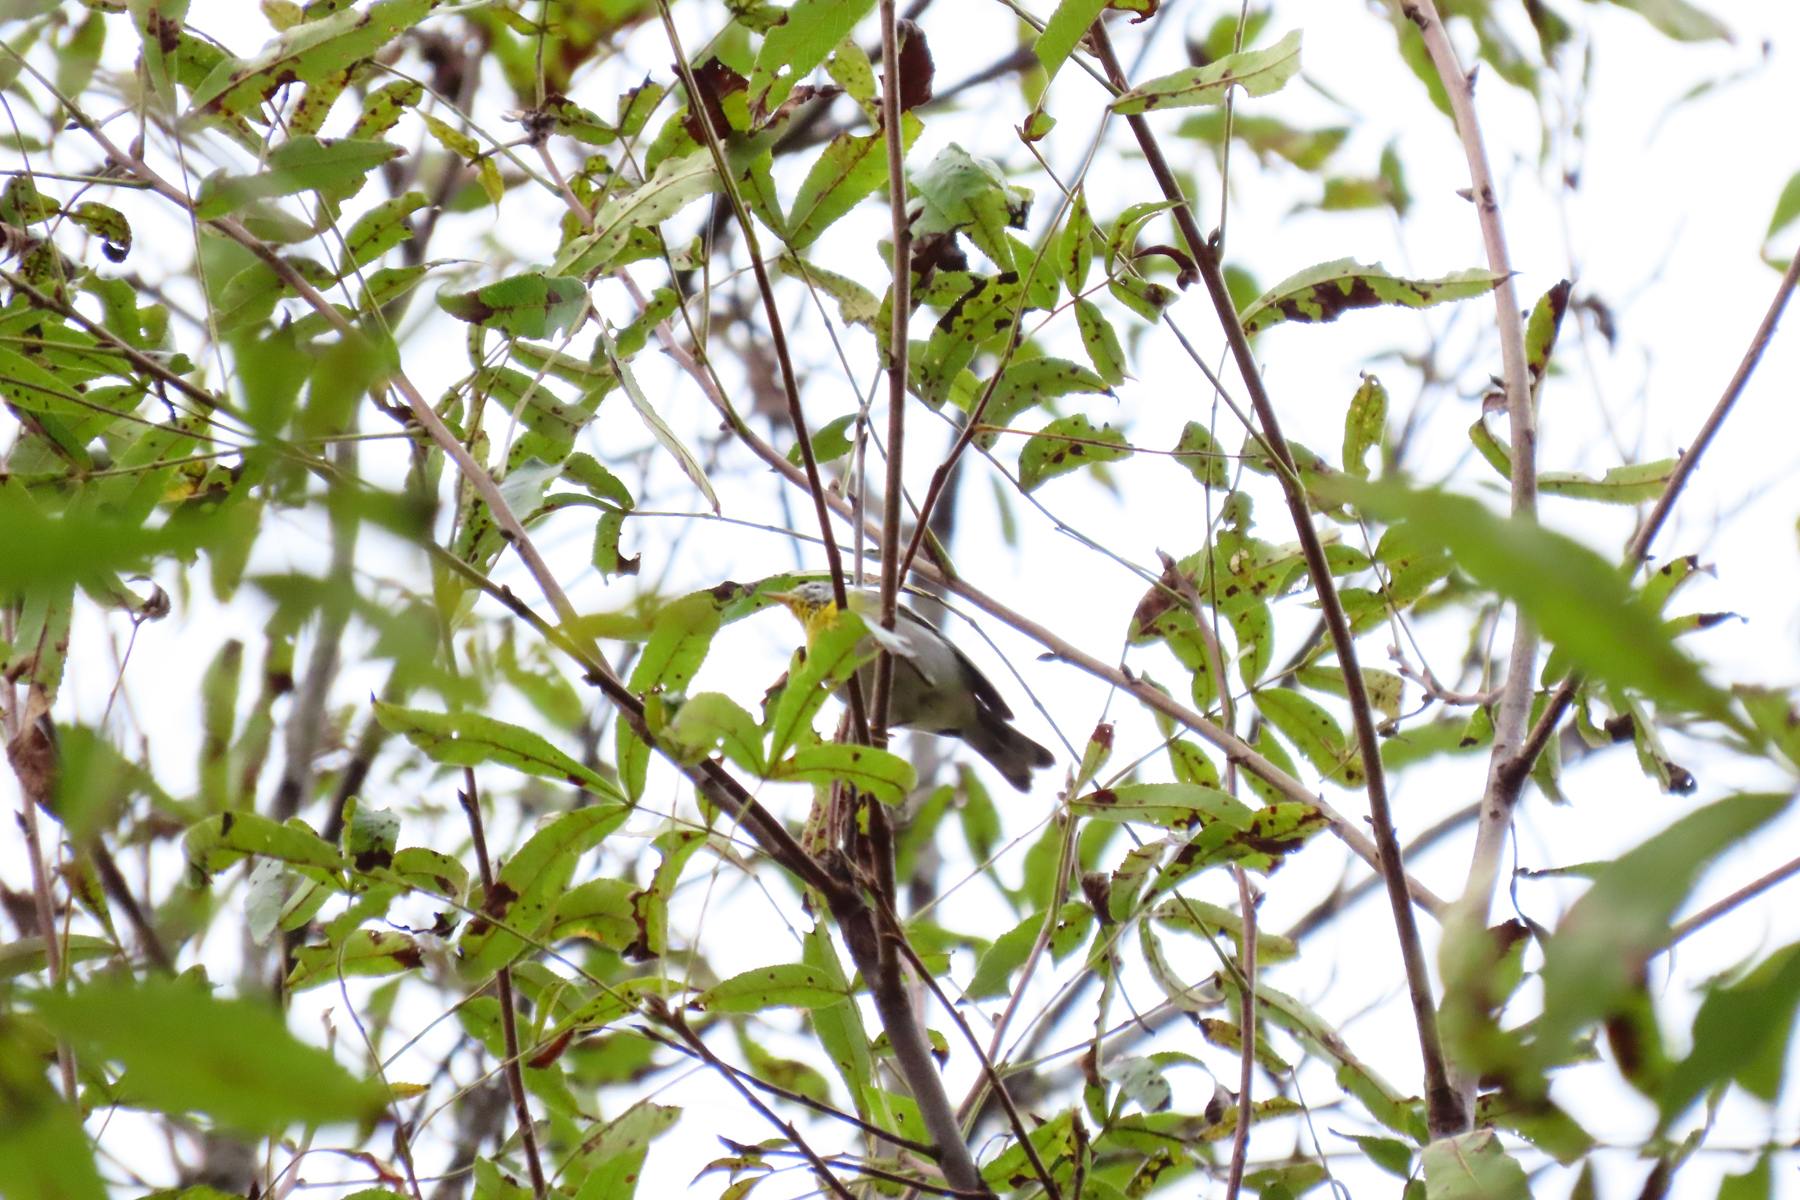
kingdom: Animalia
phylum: Chordata
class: Aves
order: Passeriformes
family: Parulidae
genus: Setophaga
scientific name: Setophaga americana
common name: Northern parula
